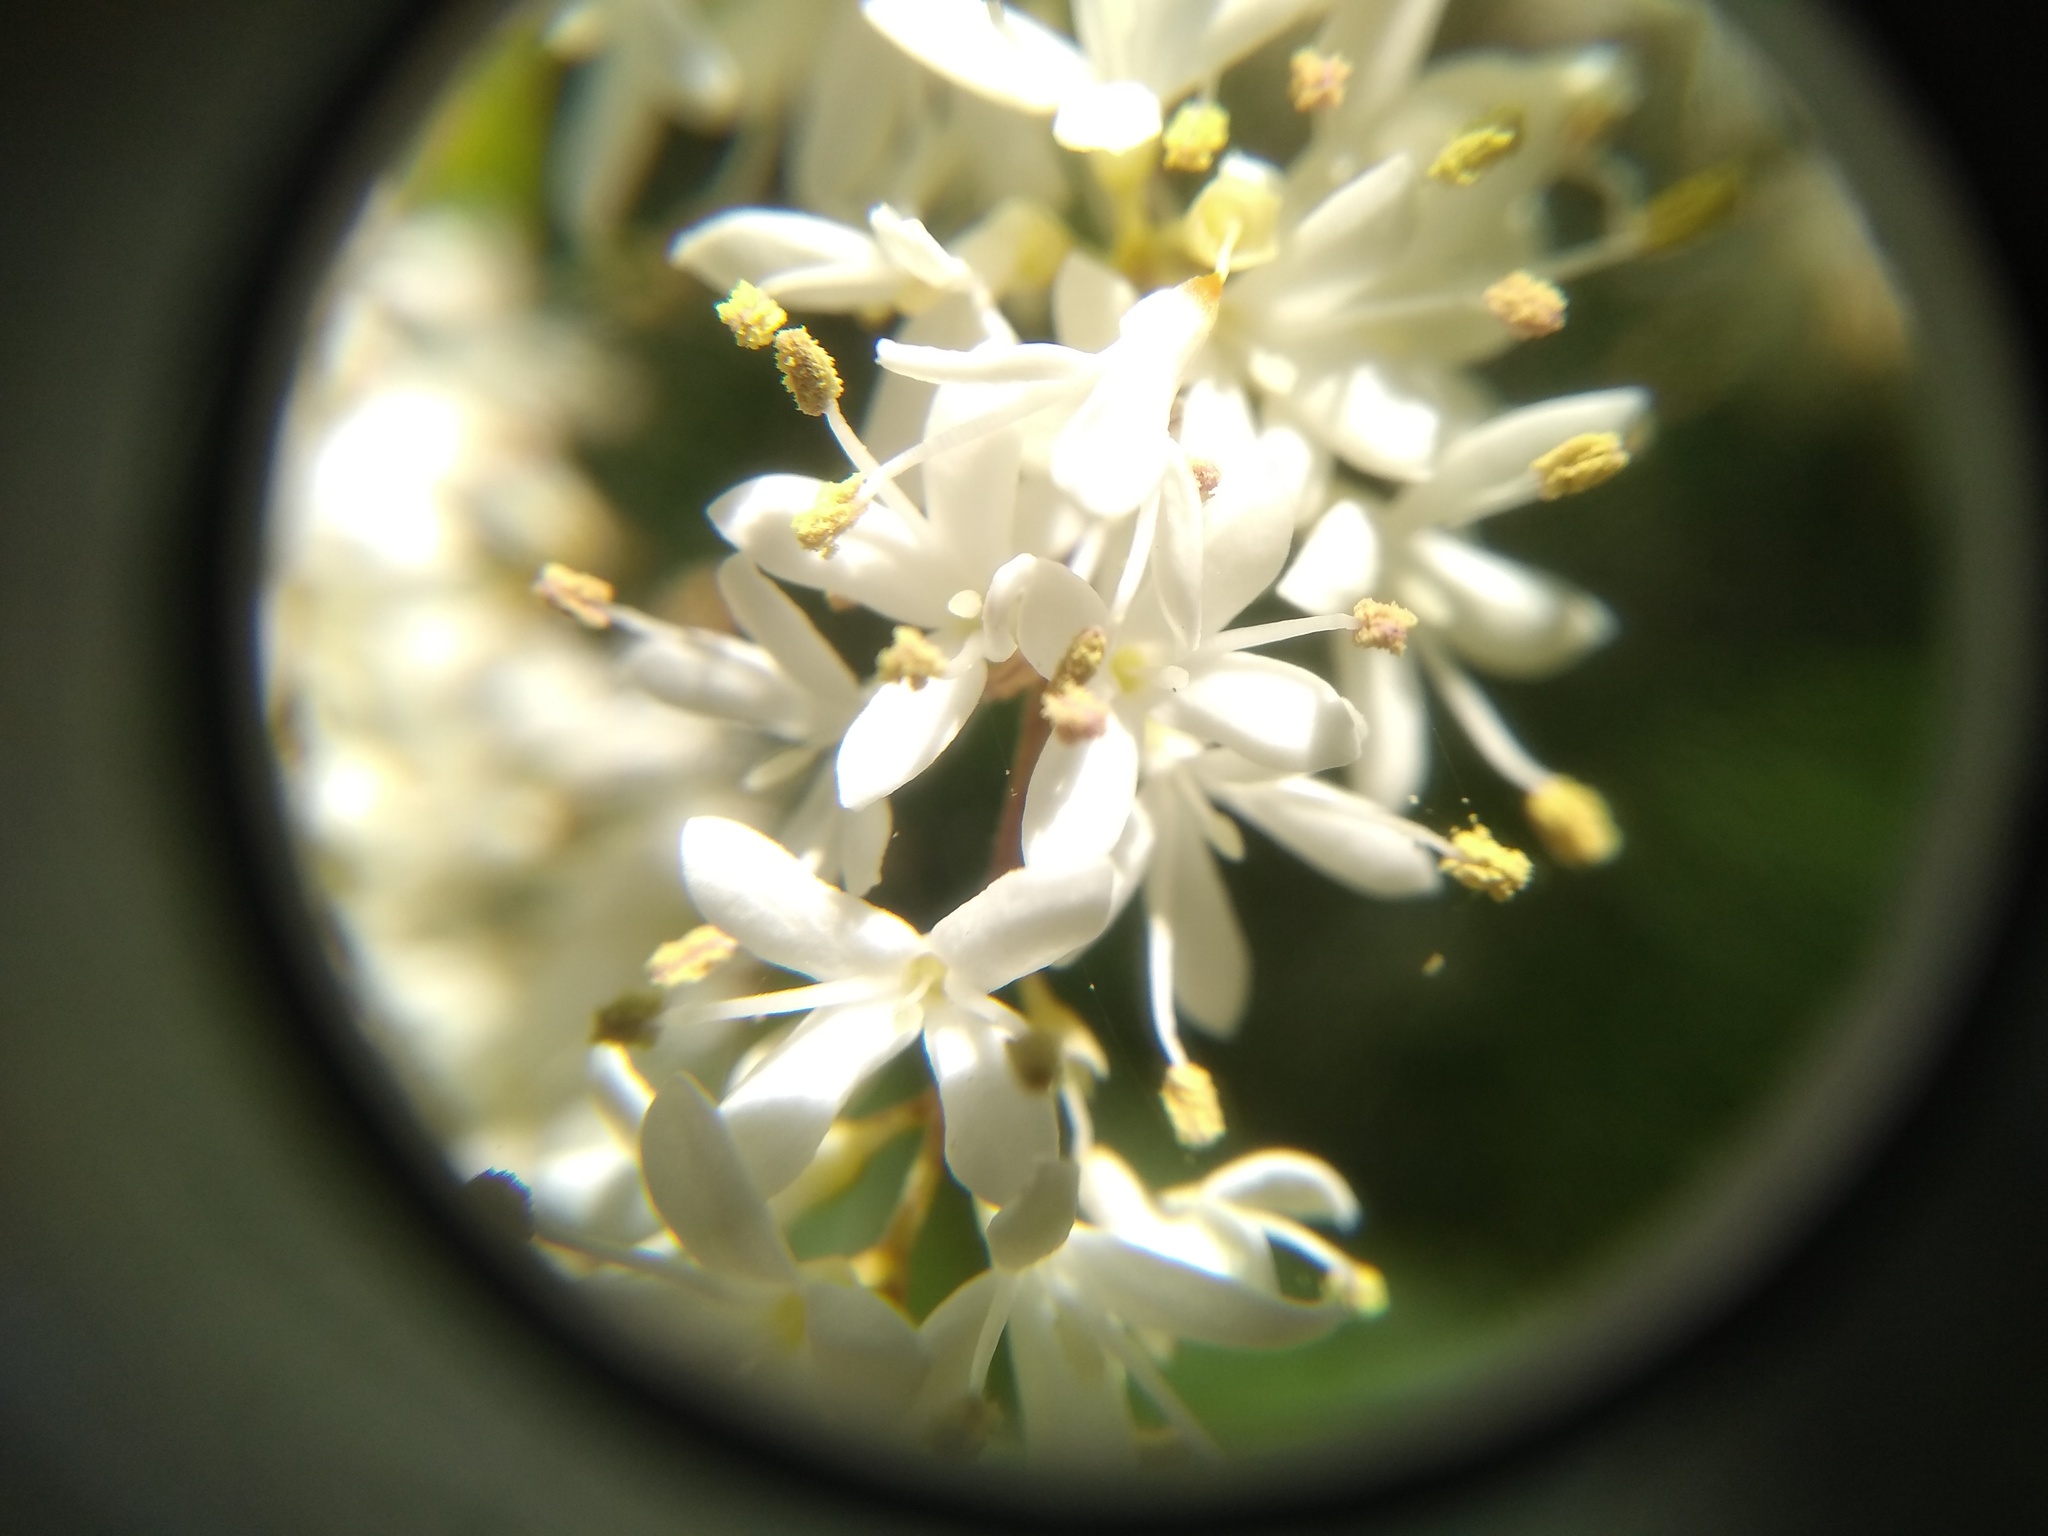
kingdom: Plantae
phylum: Tracheophyta
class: Magnoliopsida
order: Lamiales
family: Oleaceae
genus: Ligustrum
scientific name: Ligustrum sinense
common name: Chinese privet
